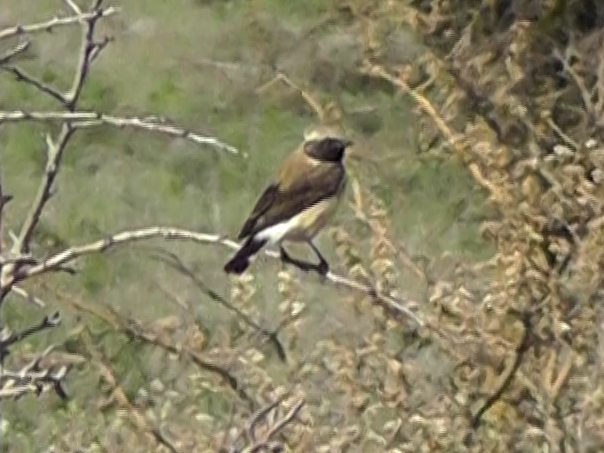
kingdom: Animalia
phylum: Chordata
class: Aves
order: Passeriformes
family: Muscicapidae
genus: Oenanthe
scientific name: Oenanthe hispanica
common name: Black-eared wheatear
